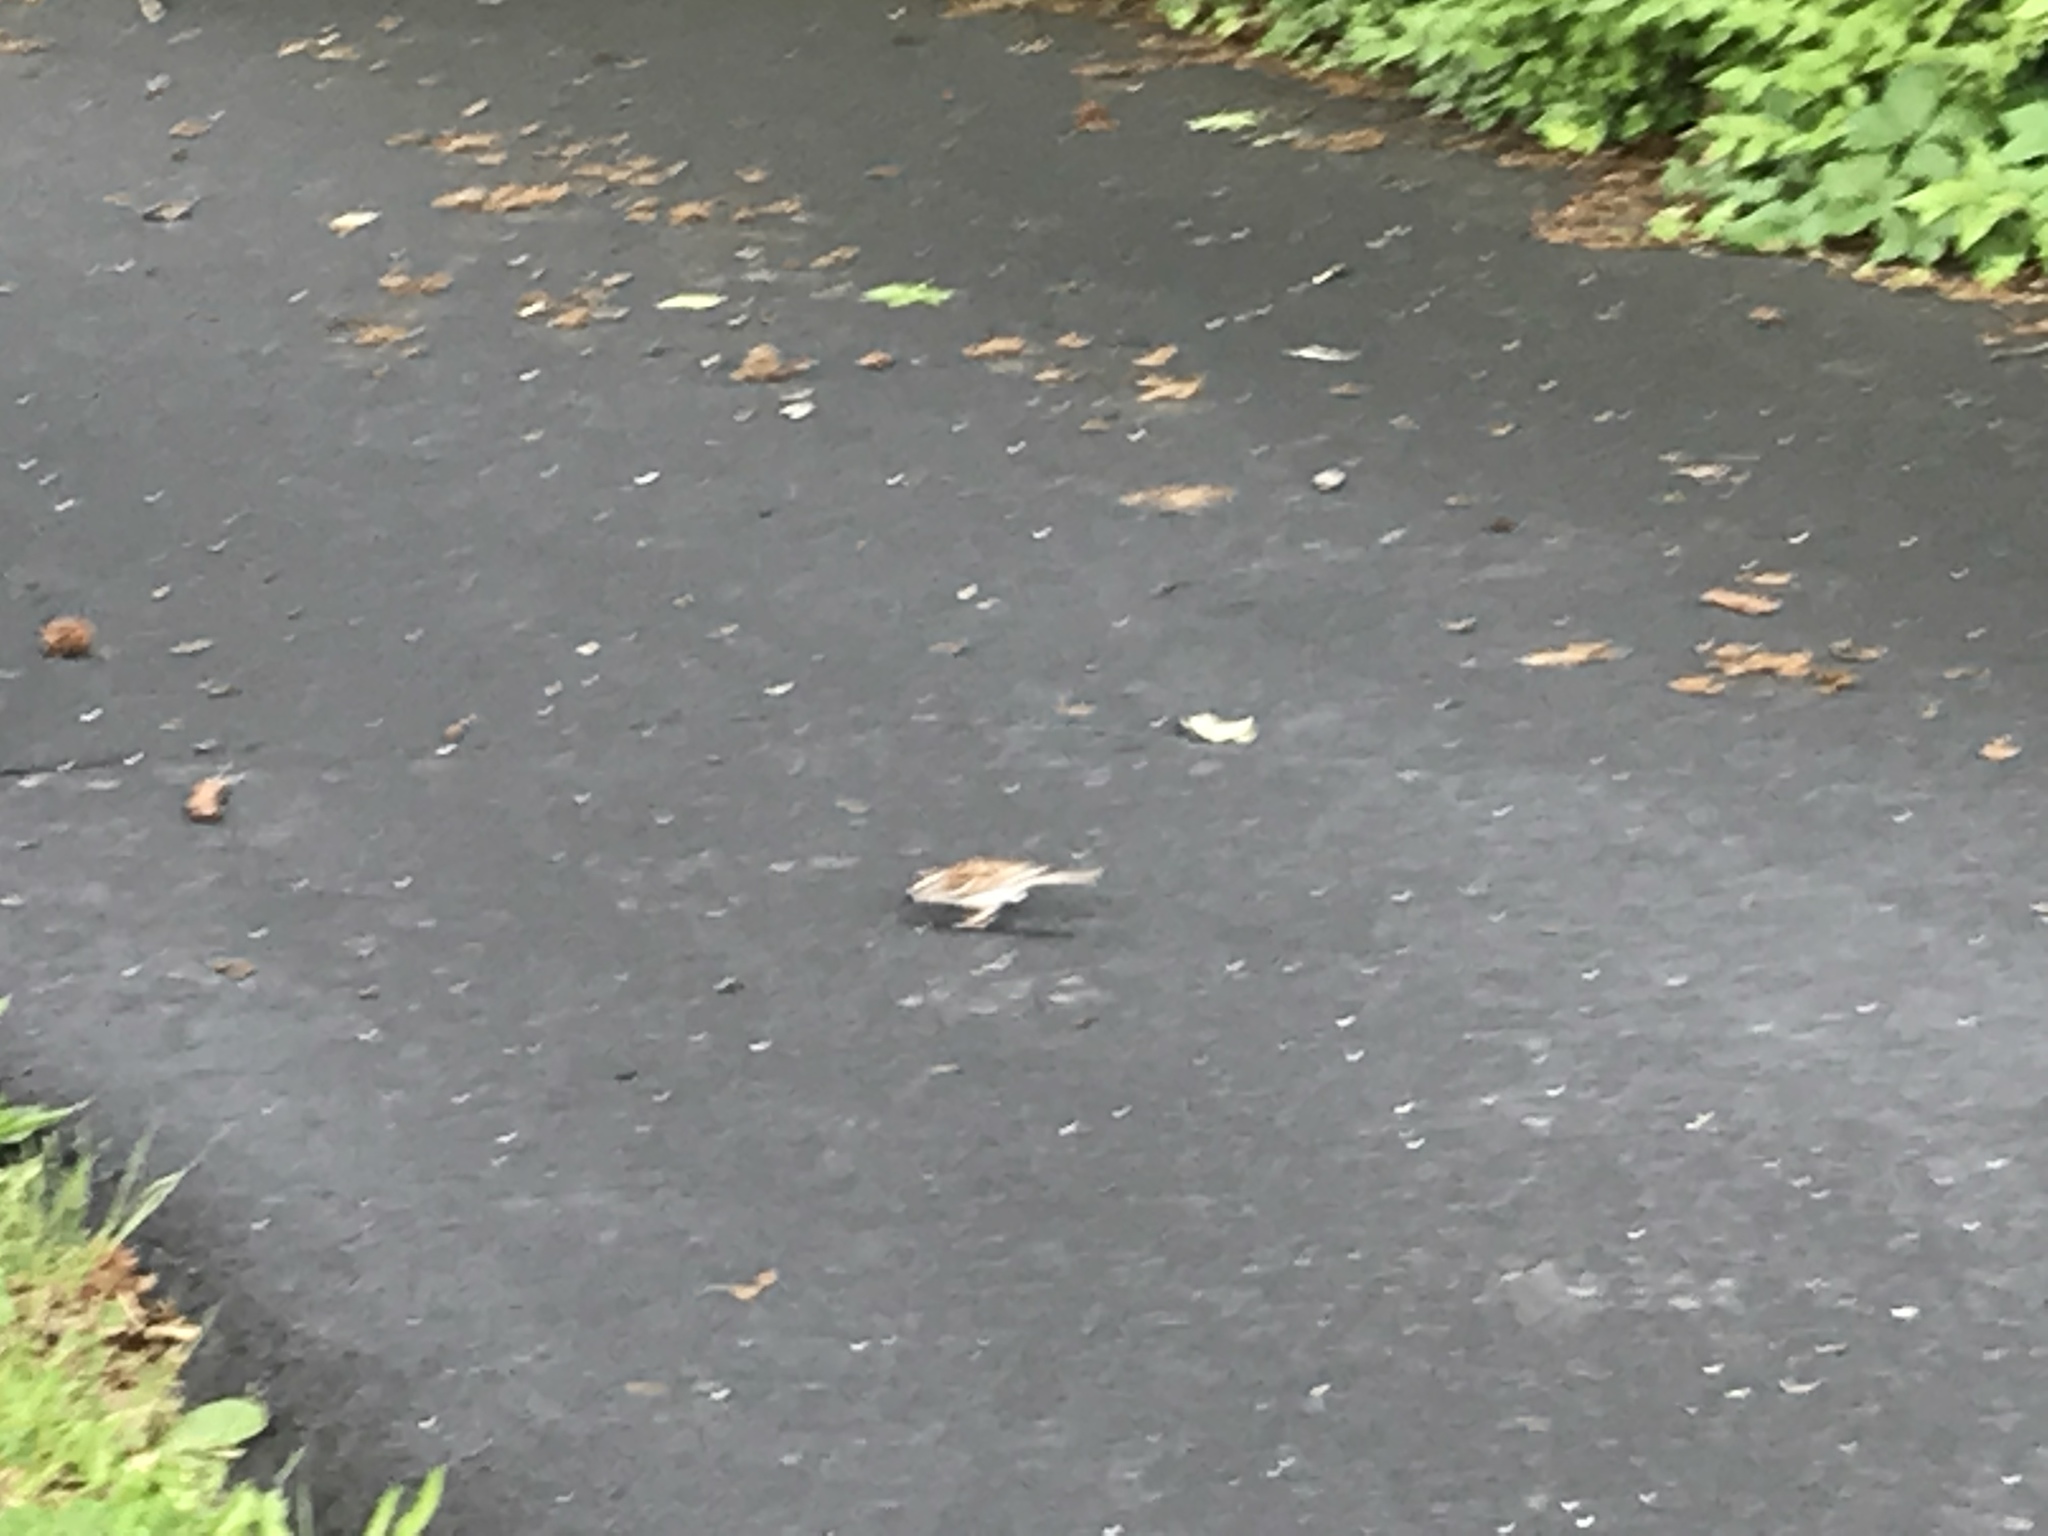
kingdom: Animalia
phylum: Chordata
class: Aves
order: Passeriformes
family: Passeridae
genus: Passer
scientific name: Passer domesticus
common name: House sparrow
